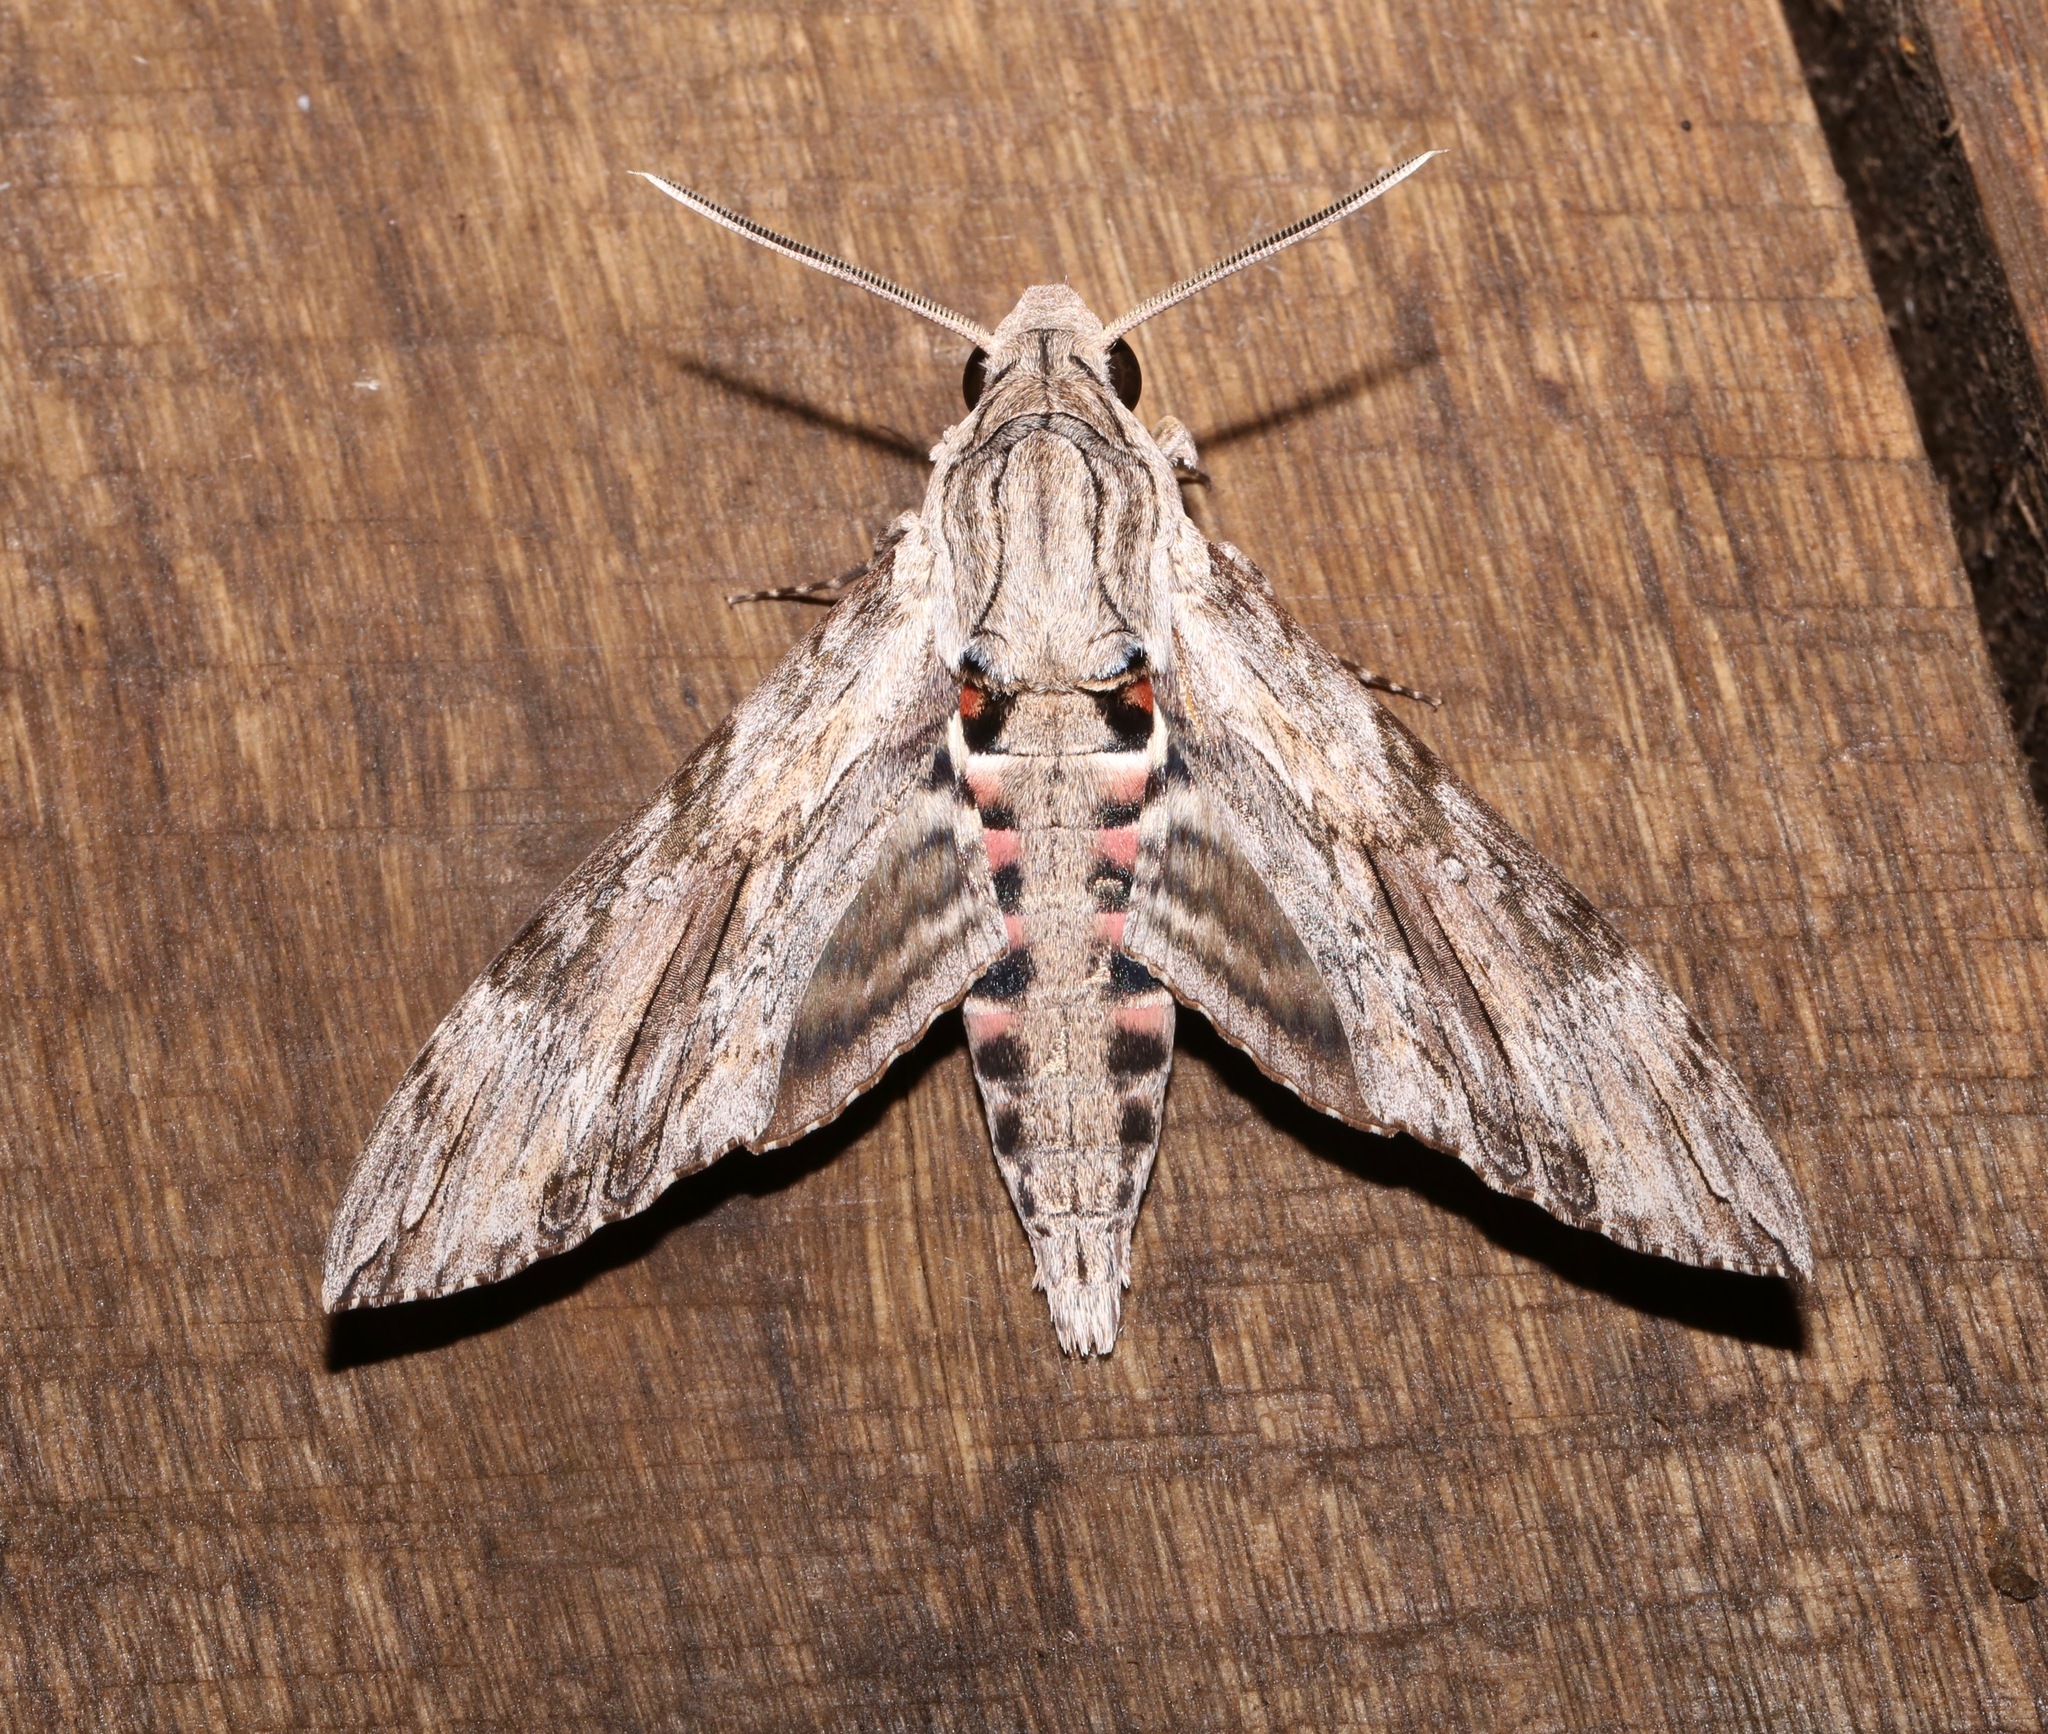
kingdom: Animalia
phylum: Arthropoda
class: Insecta
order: Lepidoptera
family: Sphingidae
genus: Agrius
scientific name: Agrius convolvuli
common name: Convolvulus hawkmoth
